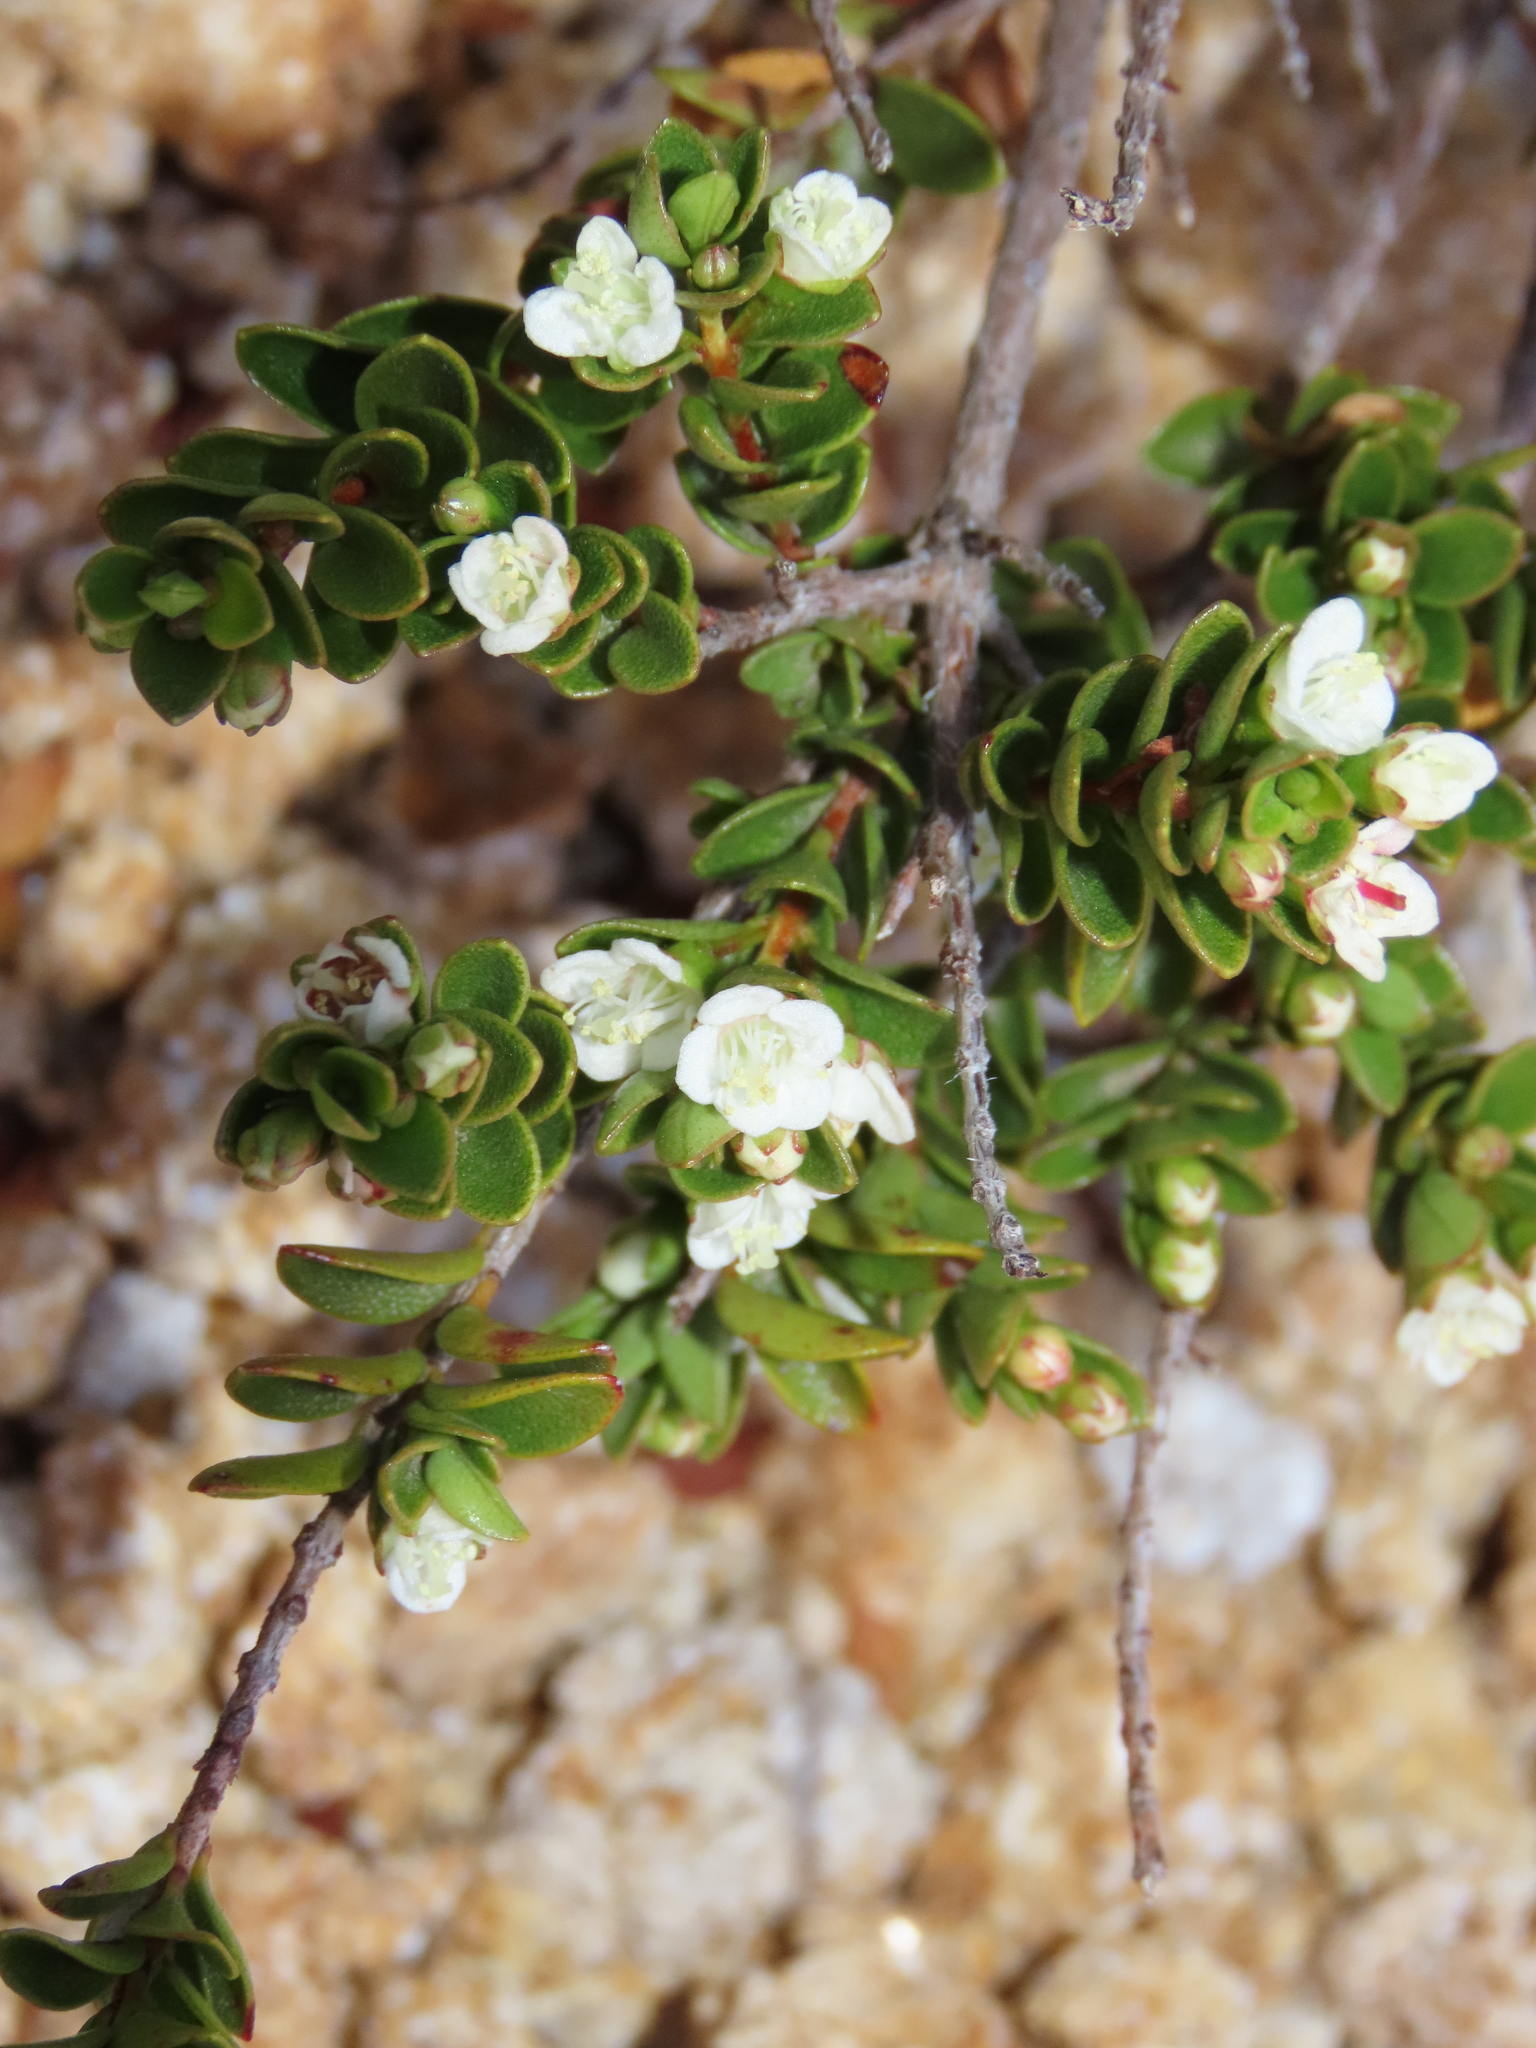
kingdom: Plantae
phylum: Tracheophyta
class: Magnoliopsida
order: Myrtales
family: Myrtaceae
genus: Myrteola
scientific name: Myrteola nummularia
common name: Cranberry-myrtle
